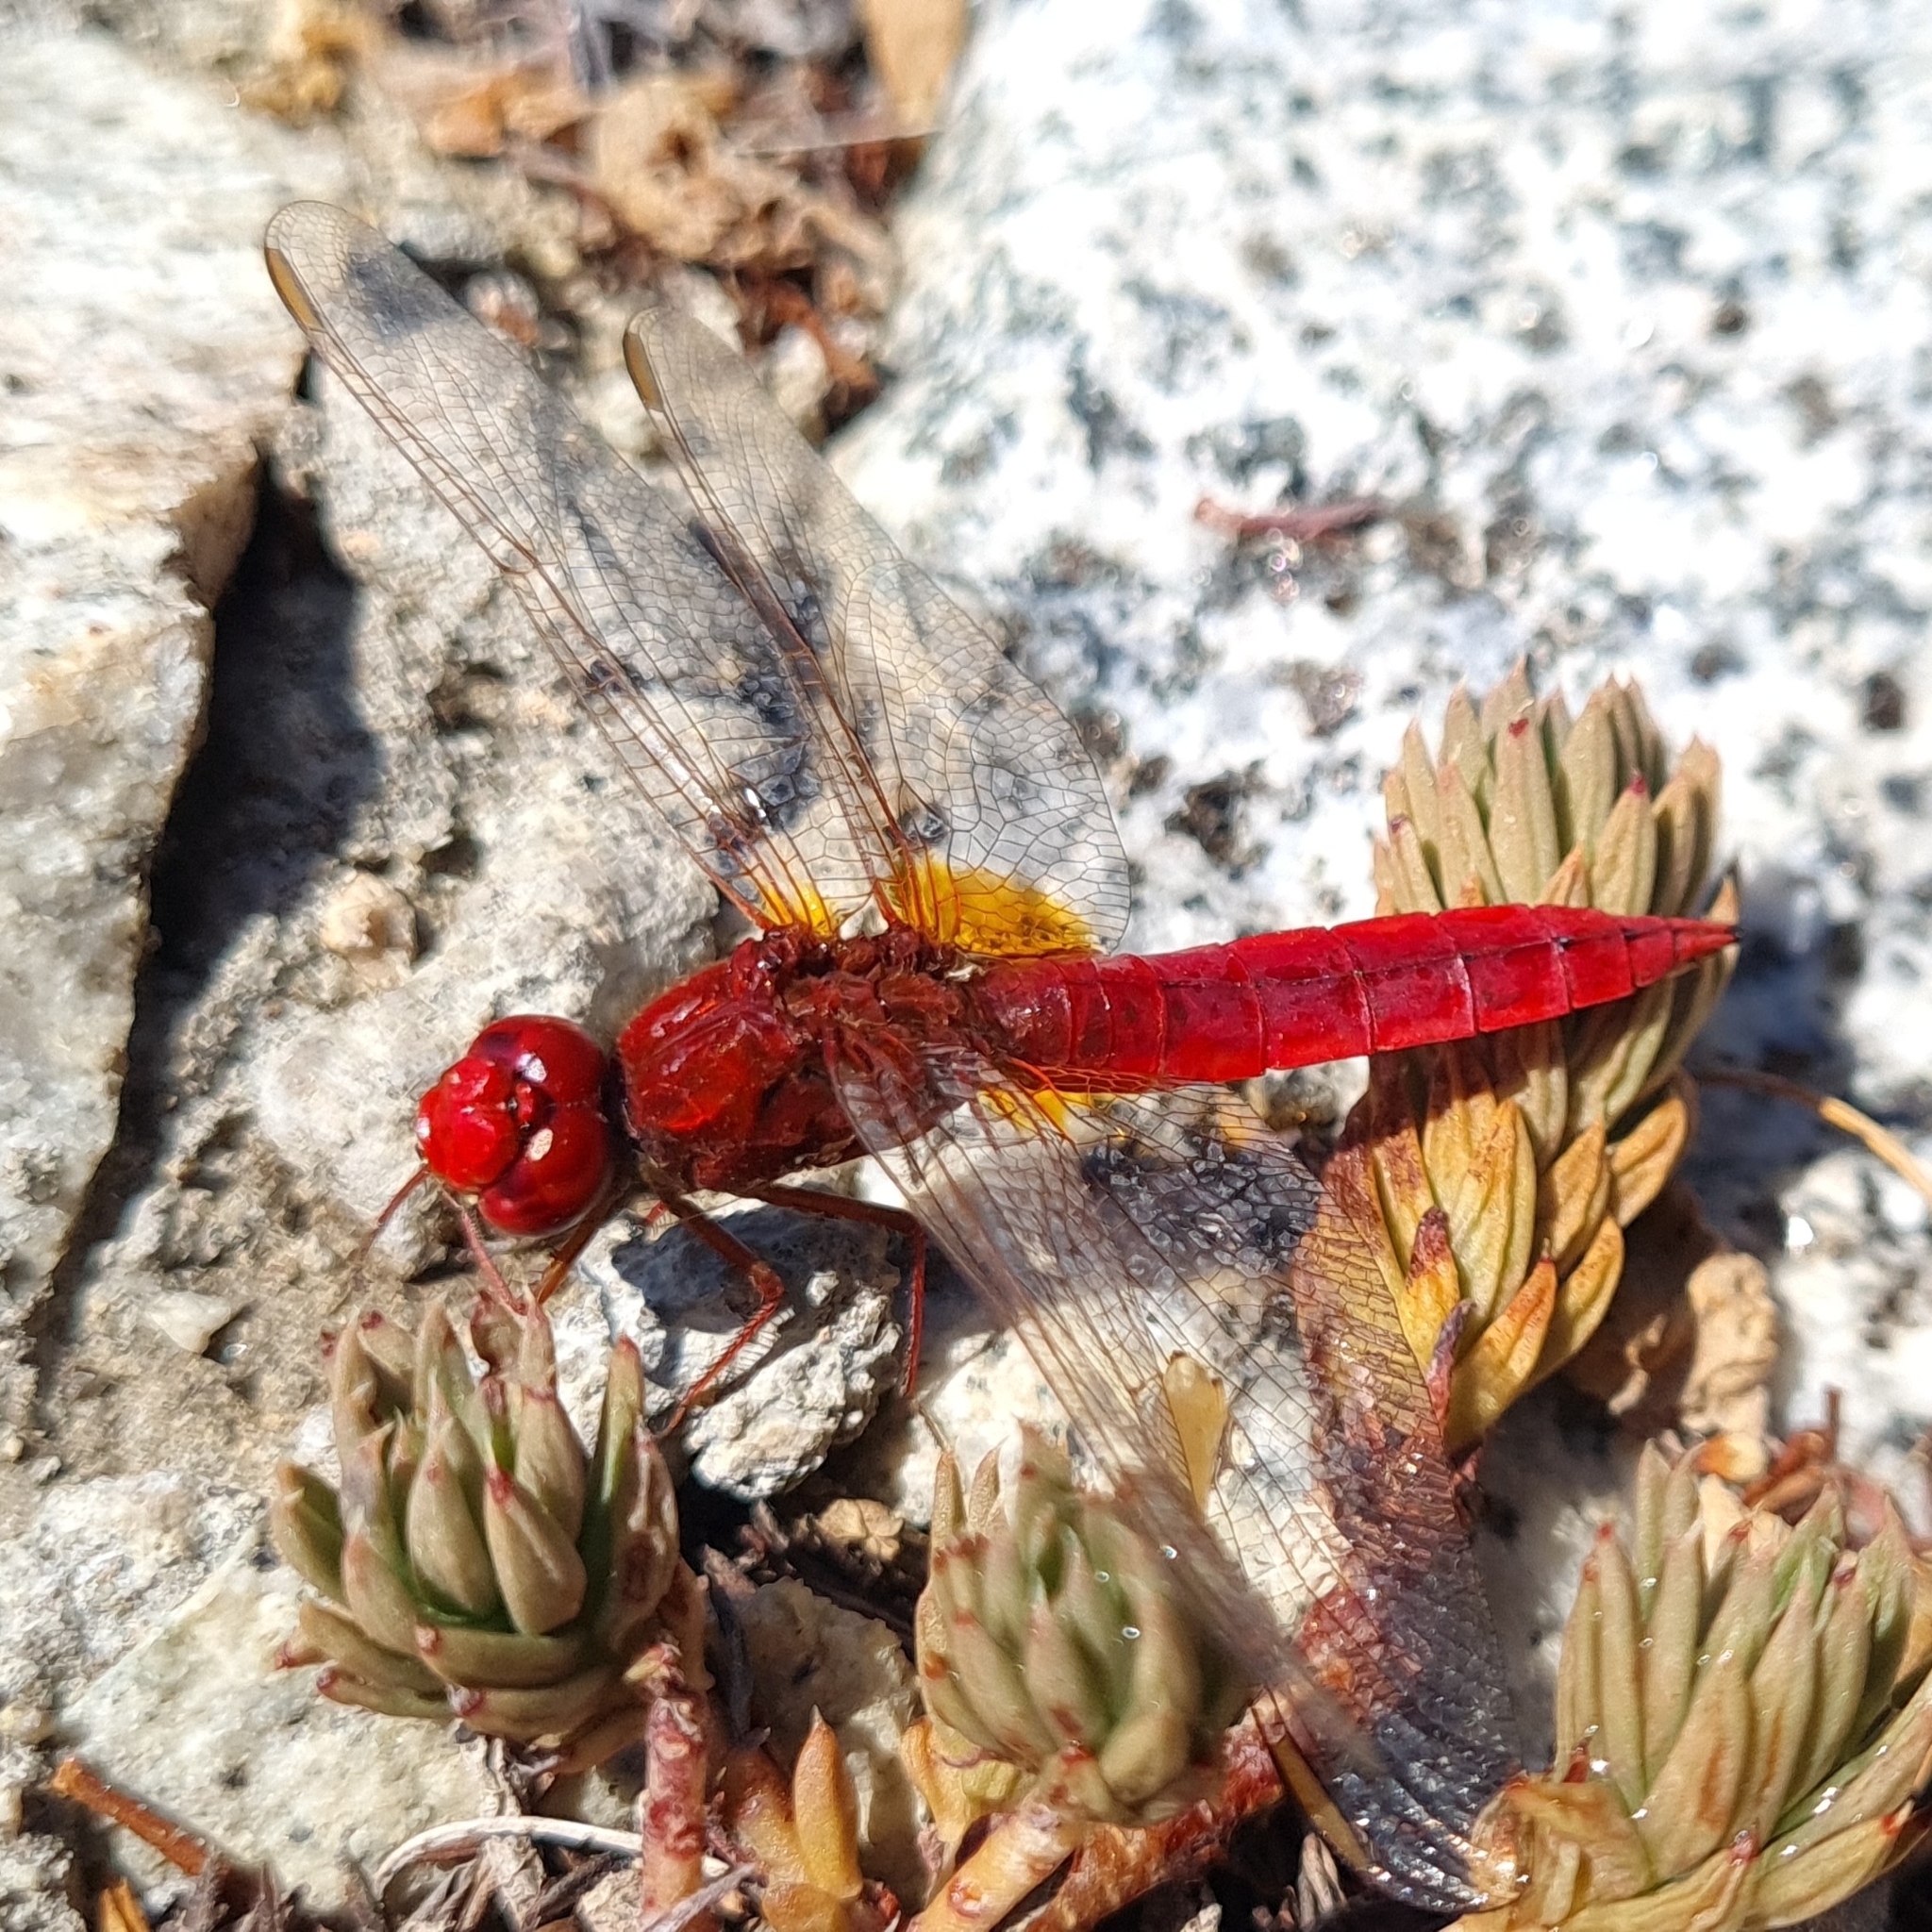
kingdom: Animalia
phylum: Arthropoda
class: Insecta
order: Odonata
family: Libellulidae
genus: Crocothemis
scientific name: Crocothemis erythraea
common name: Scarlet dragonfly
